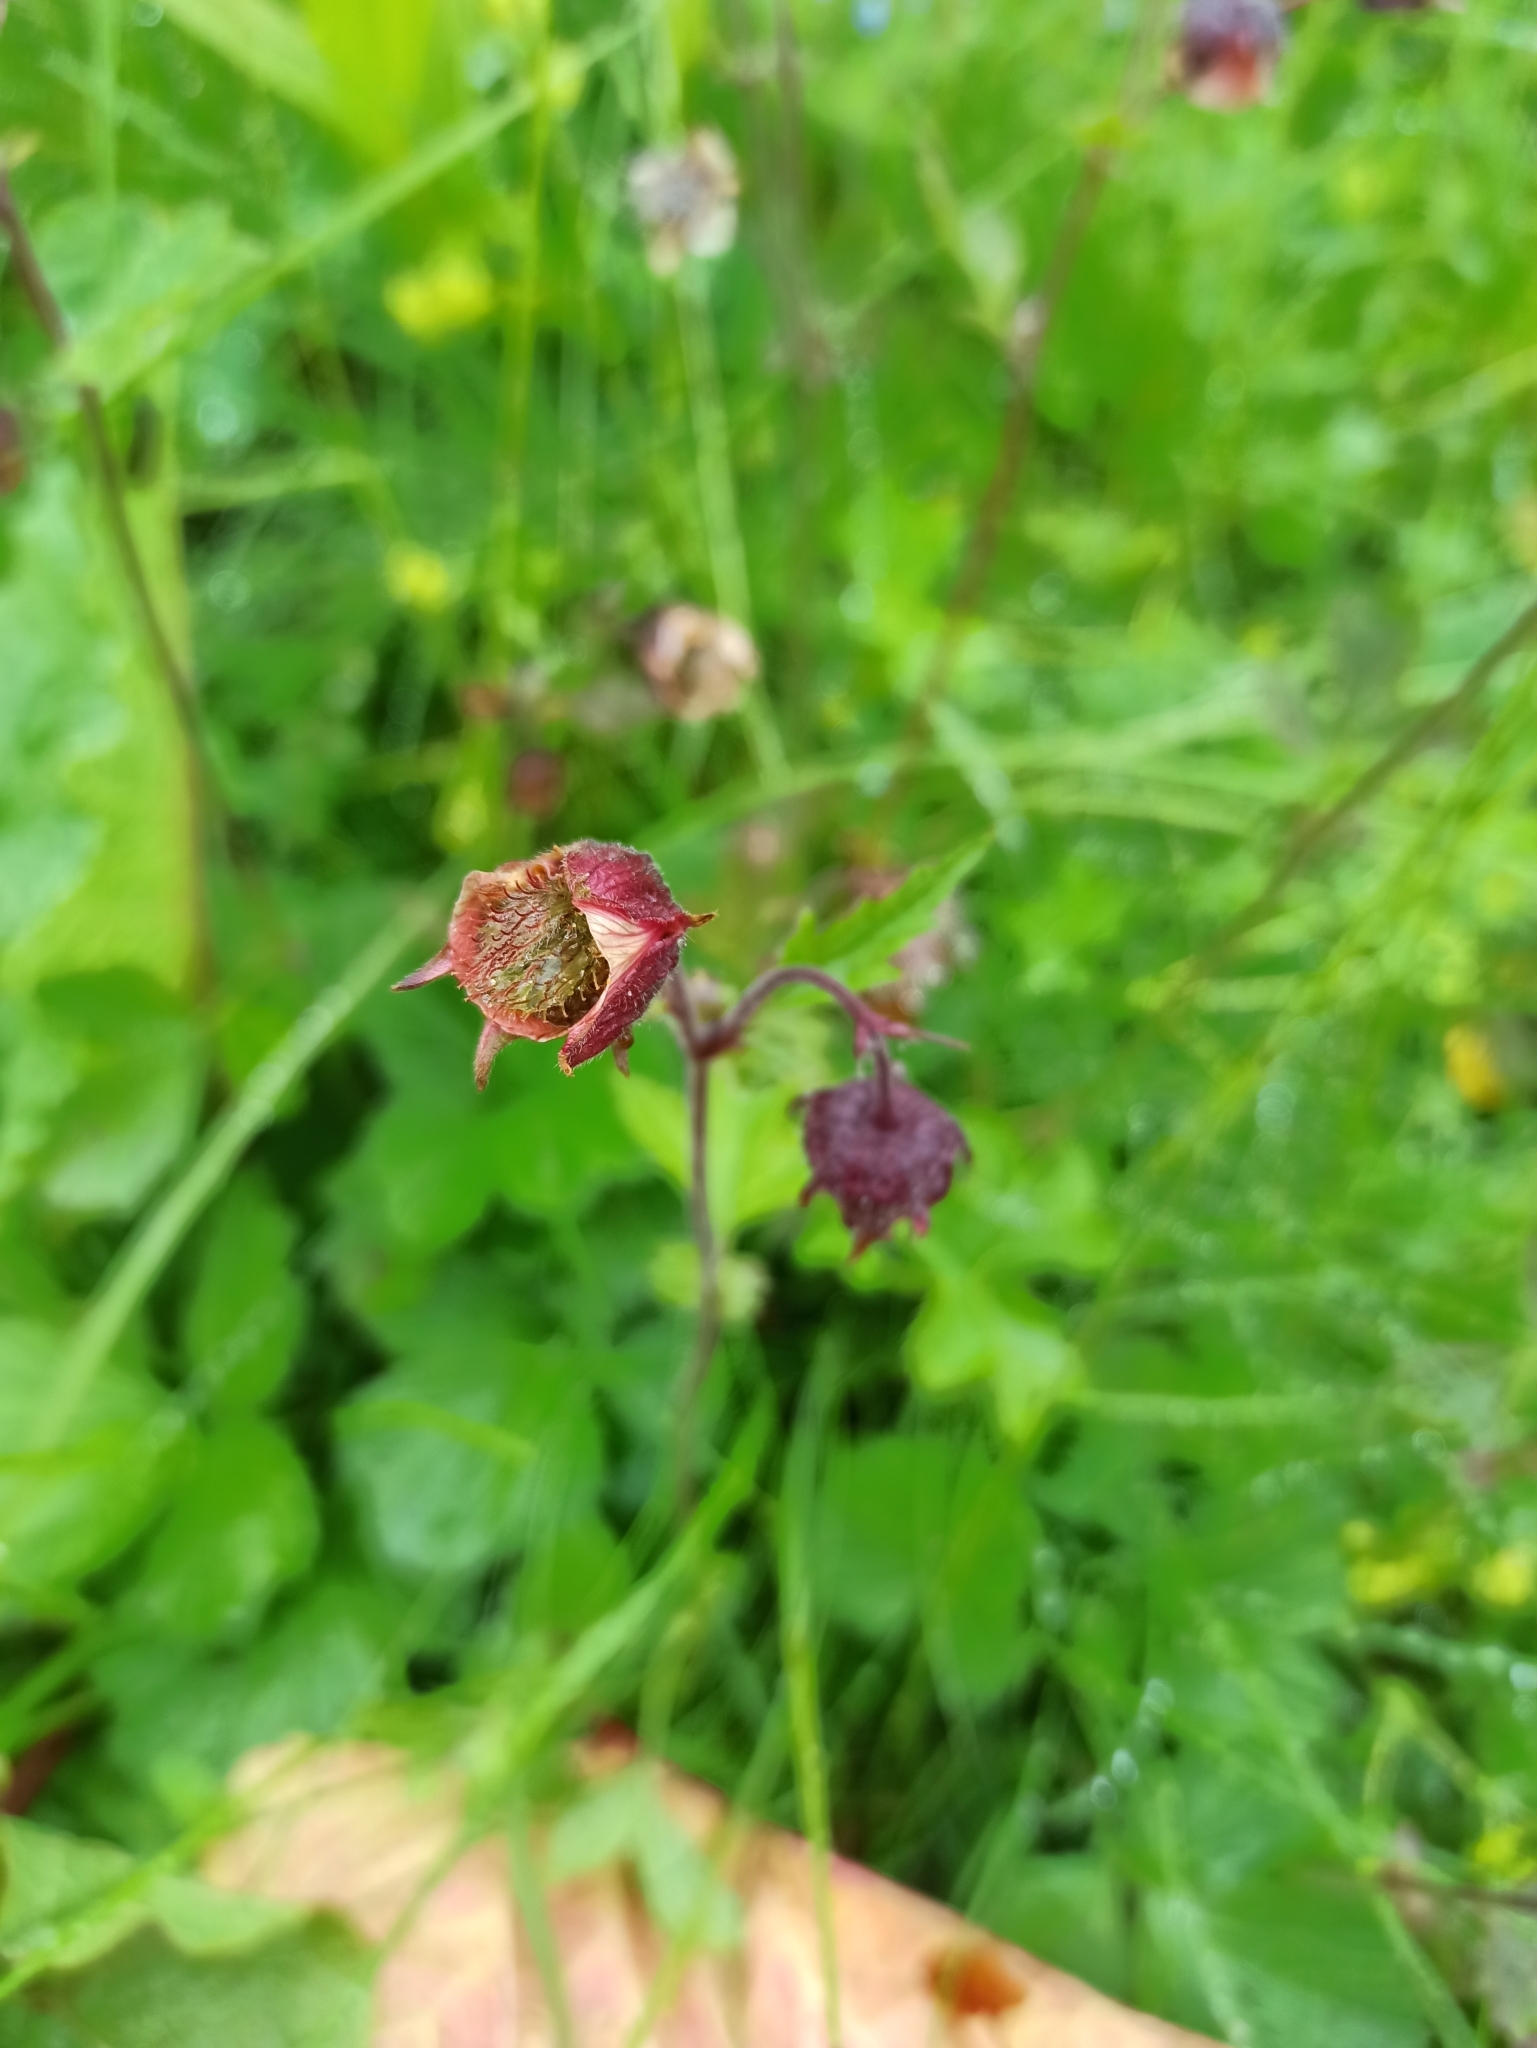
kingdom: Plantae
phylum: Tracheophyta
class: Magnoliopsida
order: Rosales
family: Rosaceae
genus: Geum
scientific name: Geum rivale
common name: Water avens
